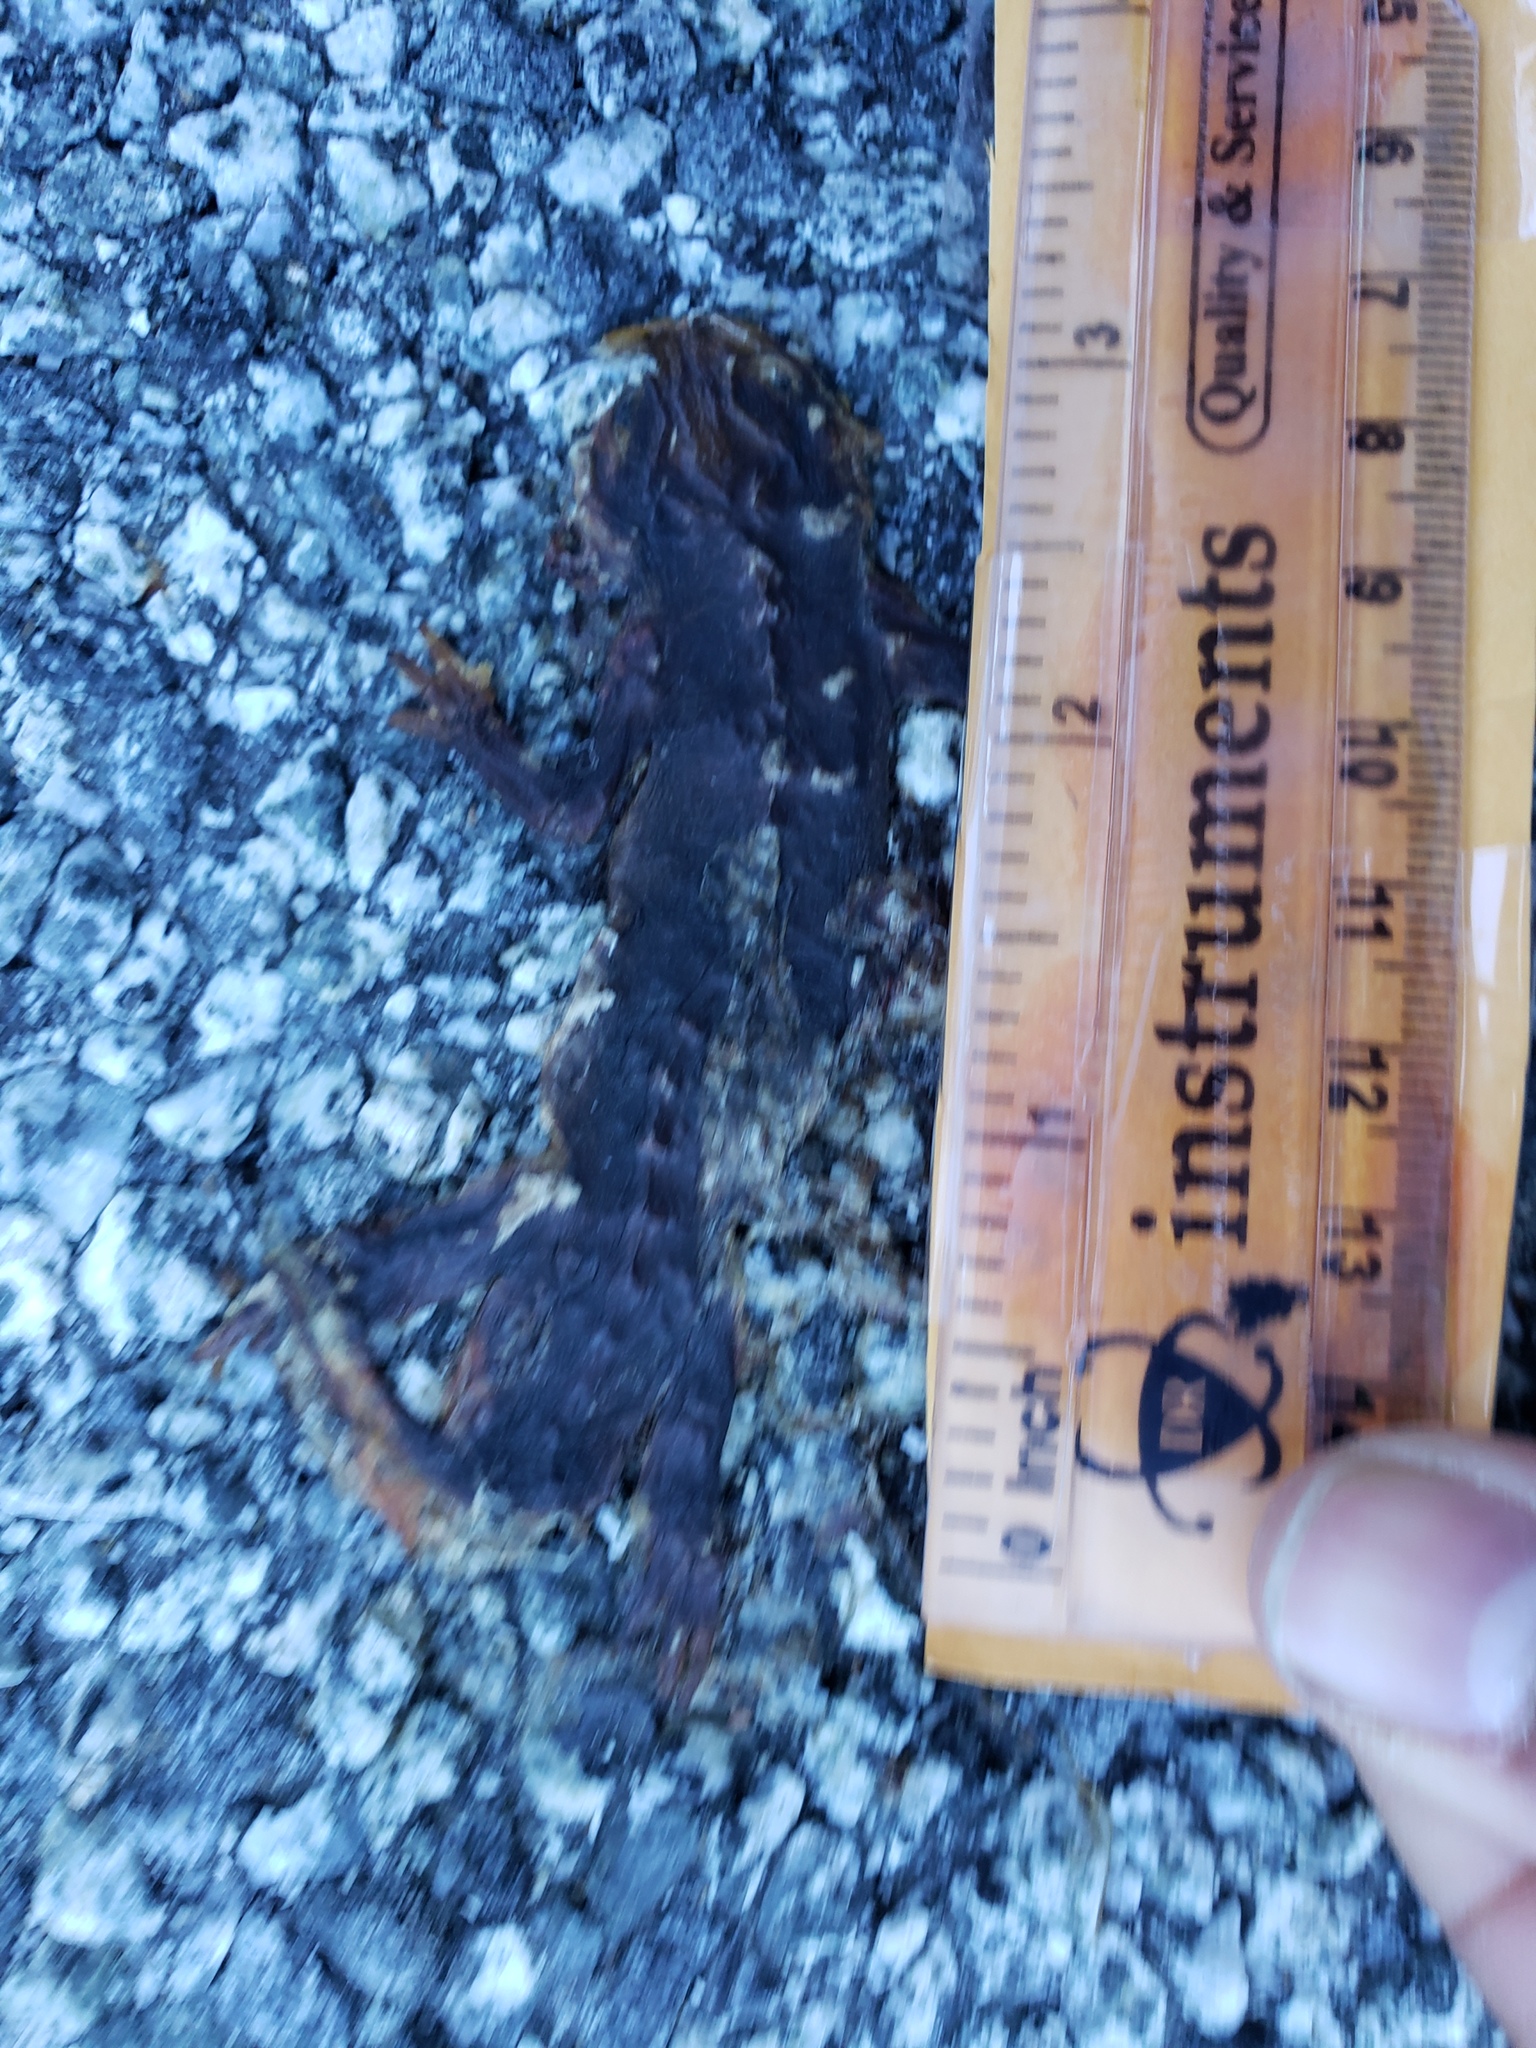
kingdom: Animalia
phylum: Chordata
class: Amphibia
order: Caudata
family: Salamandridae
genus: Taricha
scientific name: Taricha
